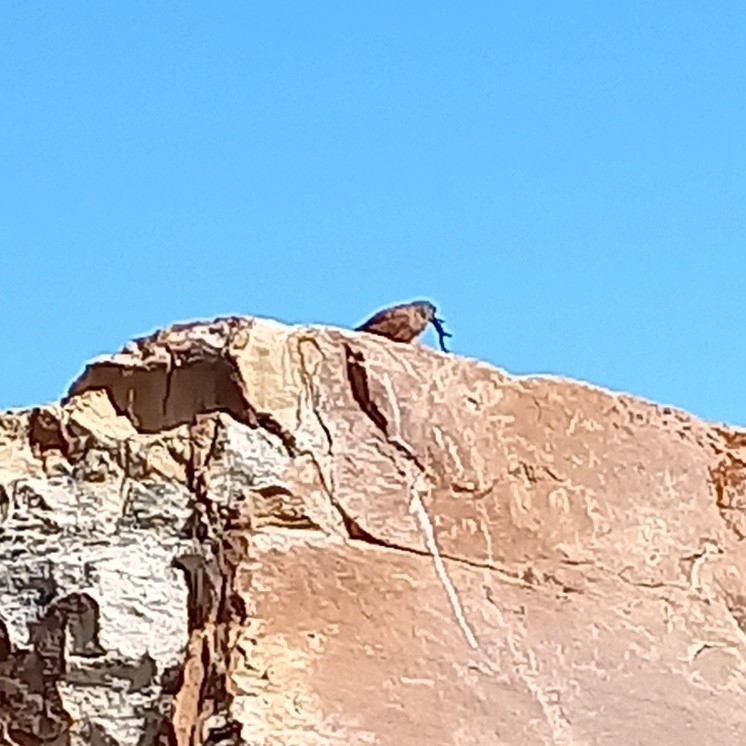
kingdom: Animalia
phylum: Chordata
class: Aves
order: Falconiformes
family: Falconidae
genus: Falco
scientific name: Falco rupicolus
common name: Rock kestrel
